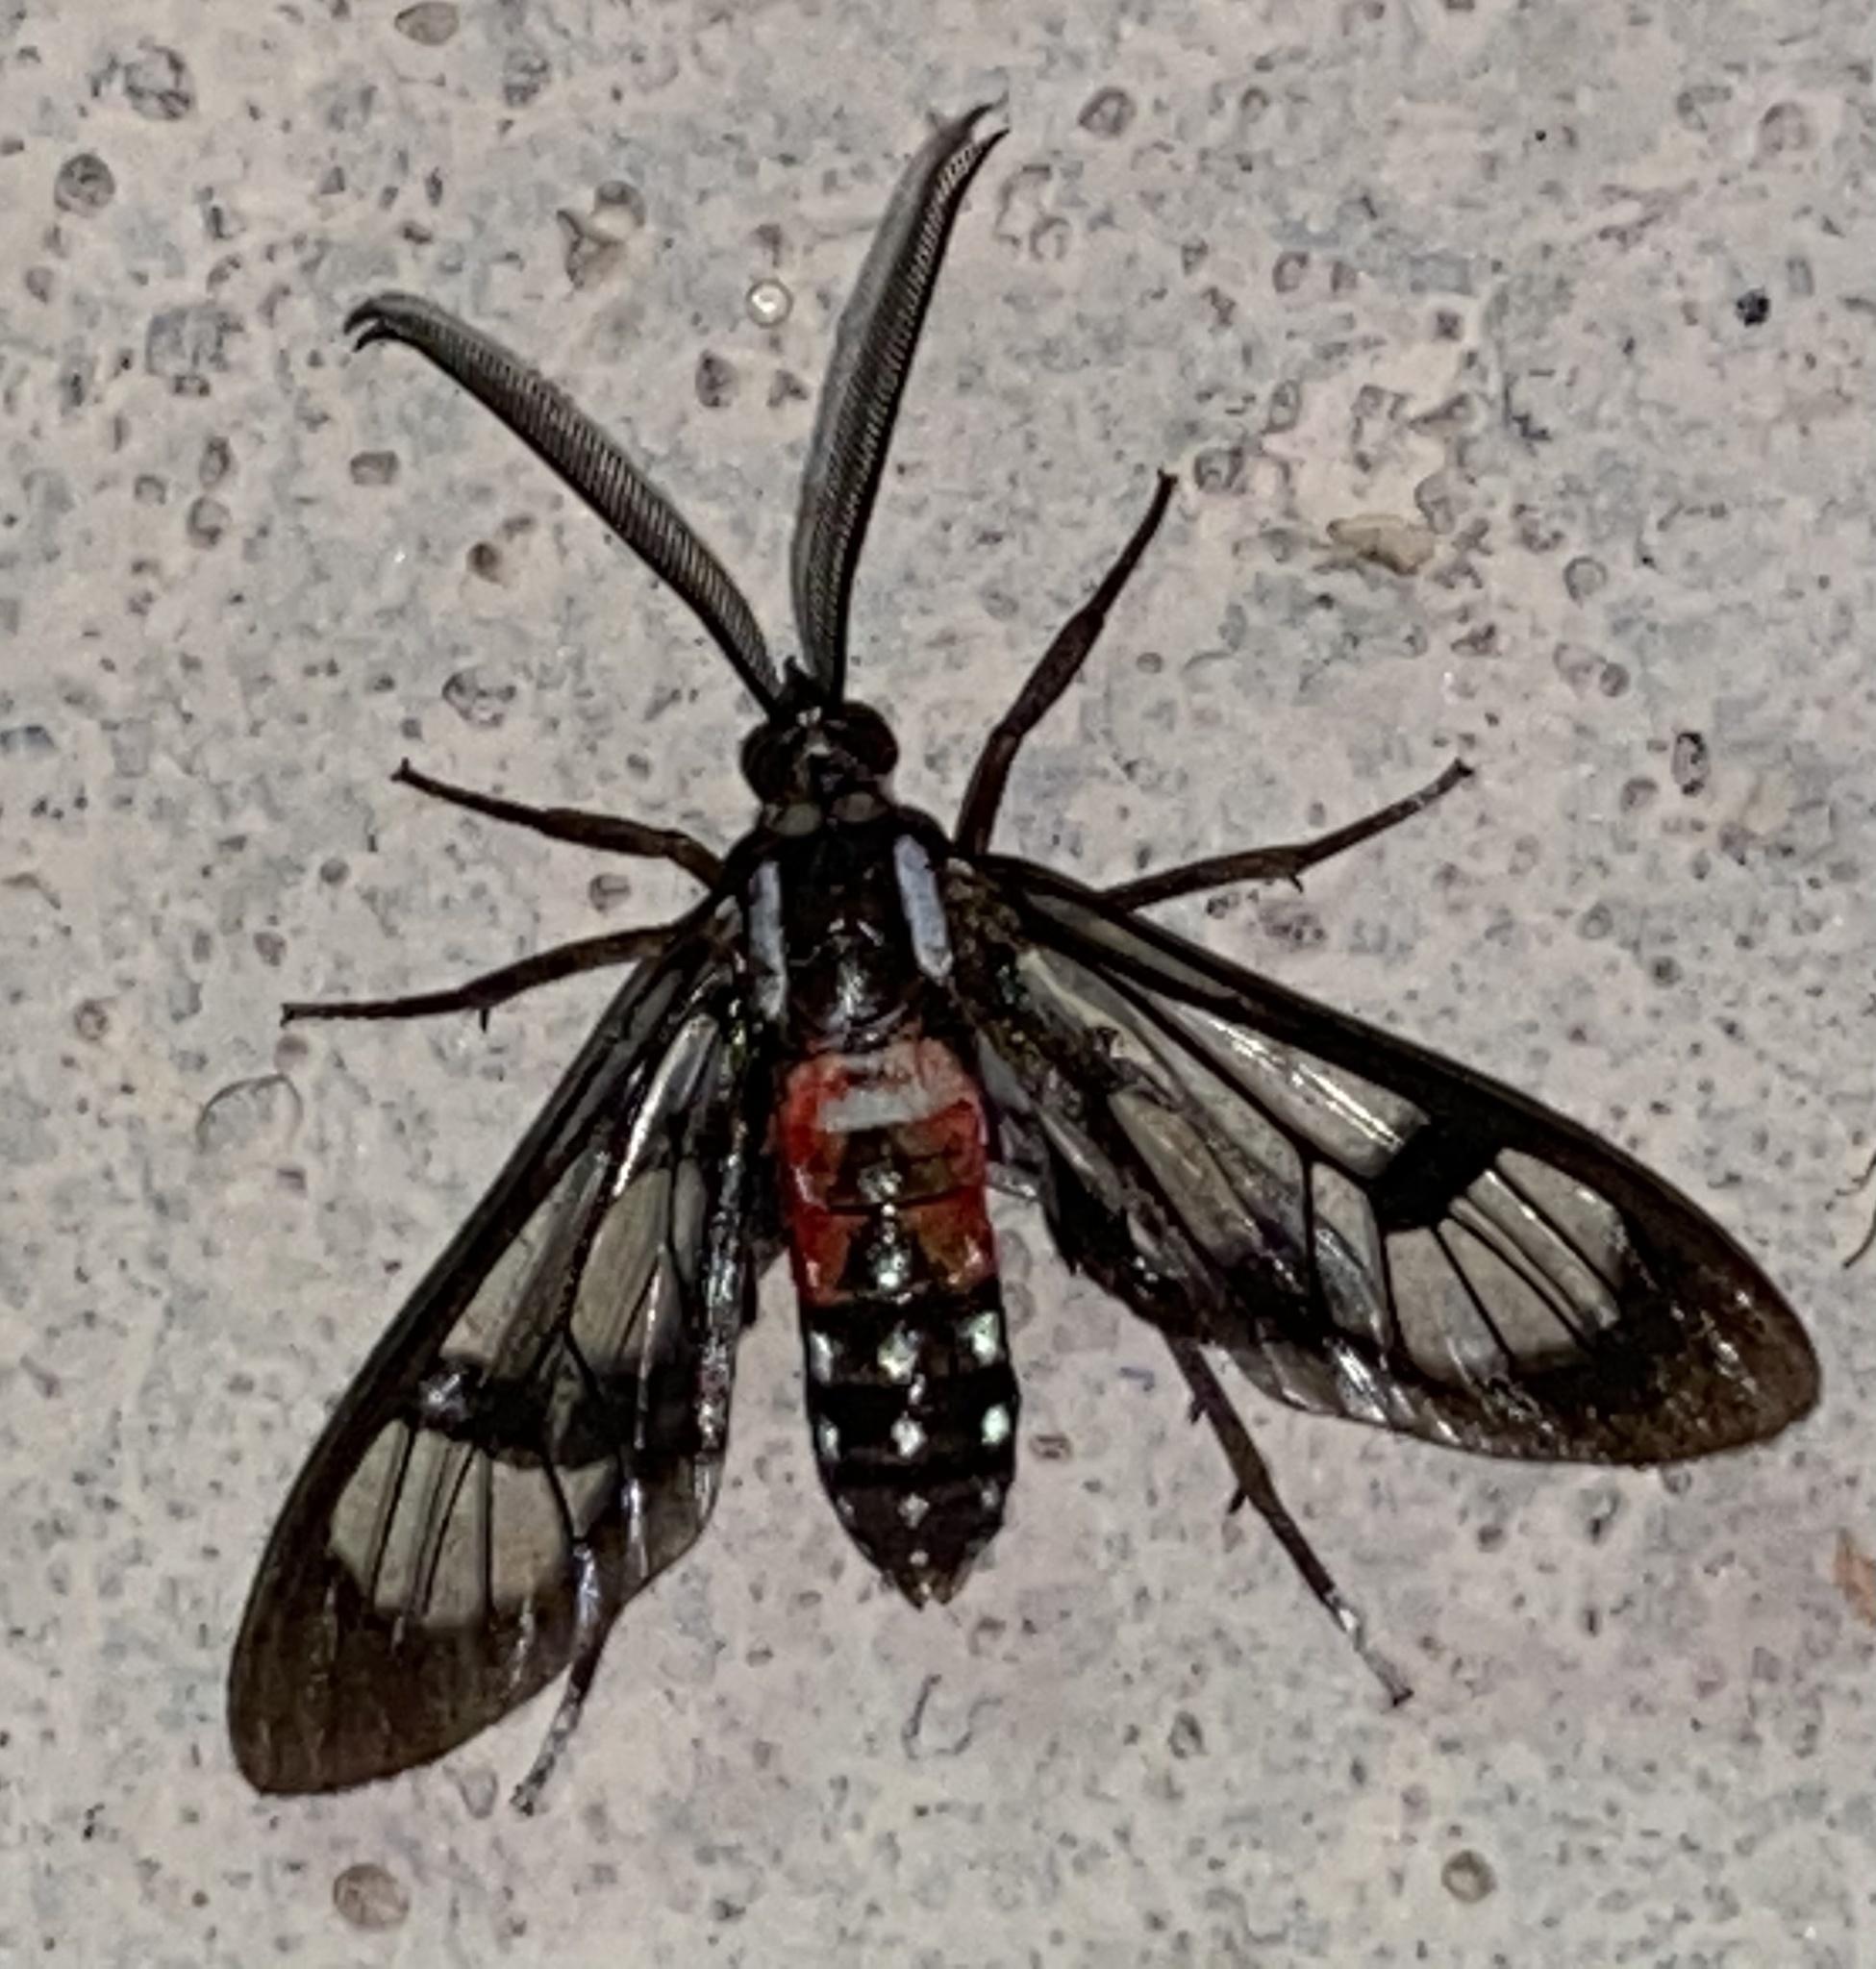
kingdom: Animalia
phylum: Arthropoda
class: Insecta
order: Lepidoptera
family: Erebidae
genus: Poecilosoma
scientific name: Poecilosoma eone
